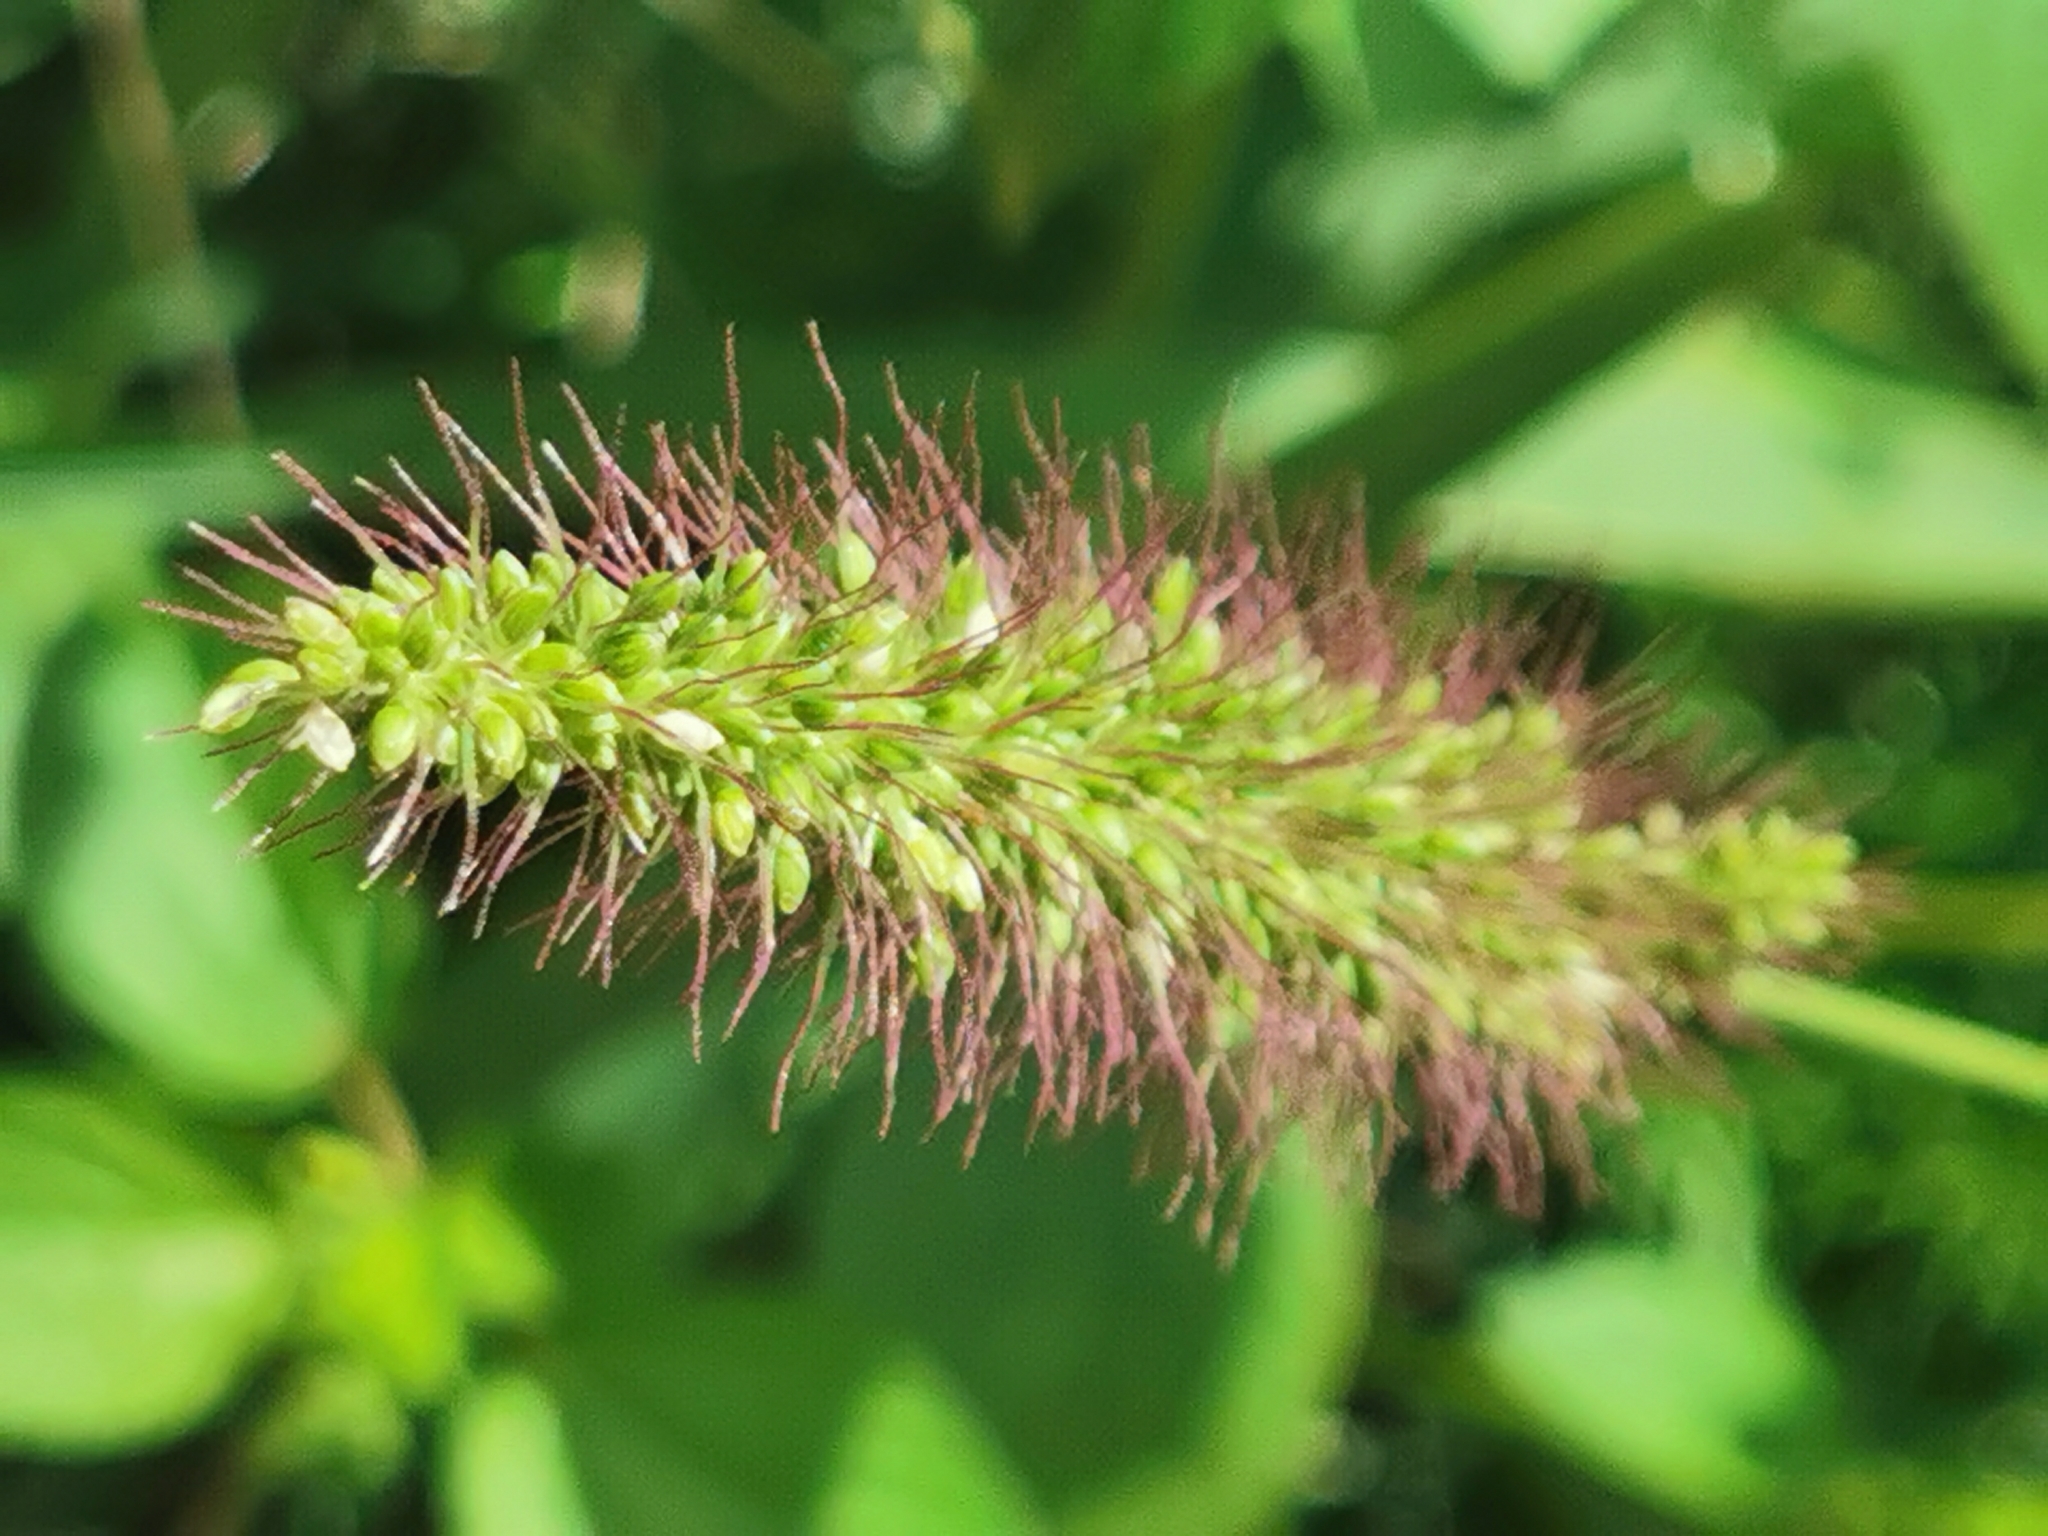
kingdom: Plantae
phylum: Tracheophyta
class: Liliopsida
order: Poales
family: Poaceae
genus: Setaria
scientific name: Setaria adhaerens
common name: Adherent bristle-grass
